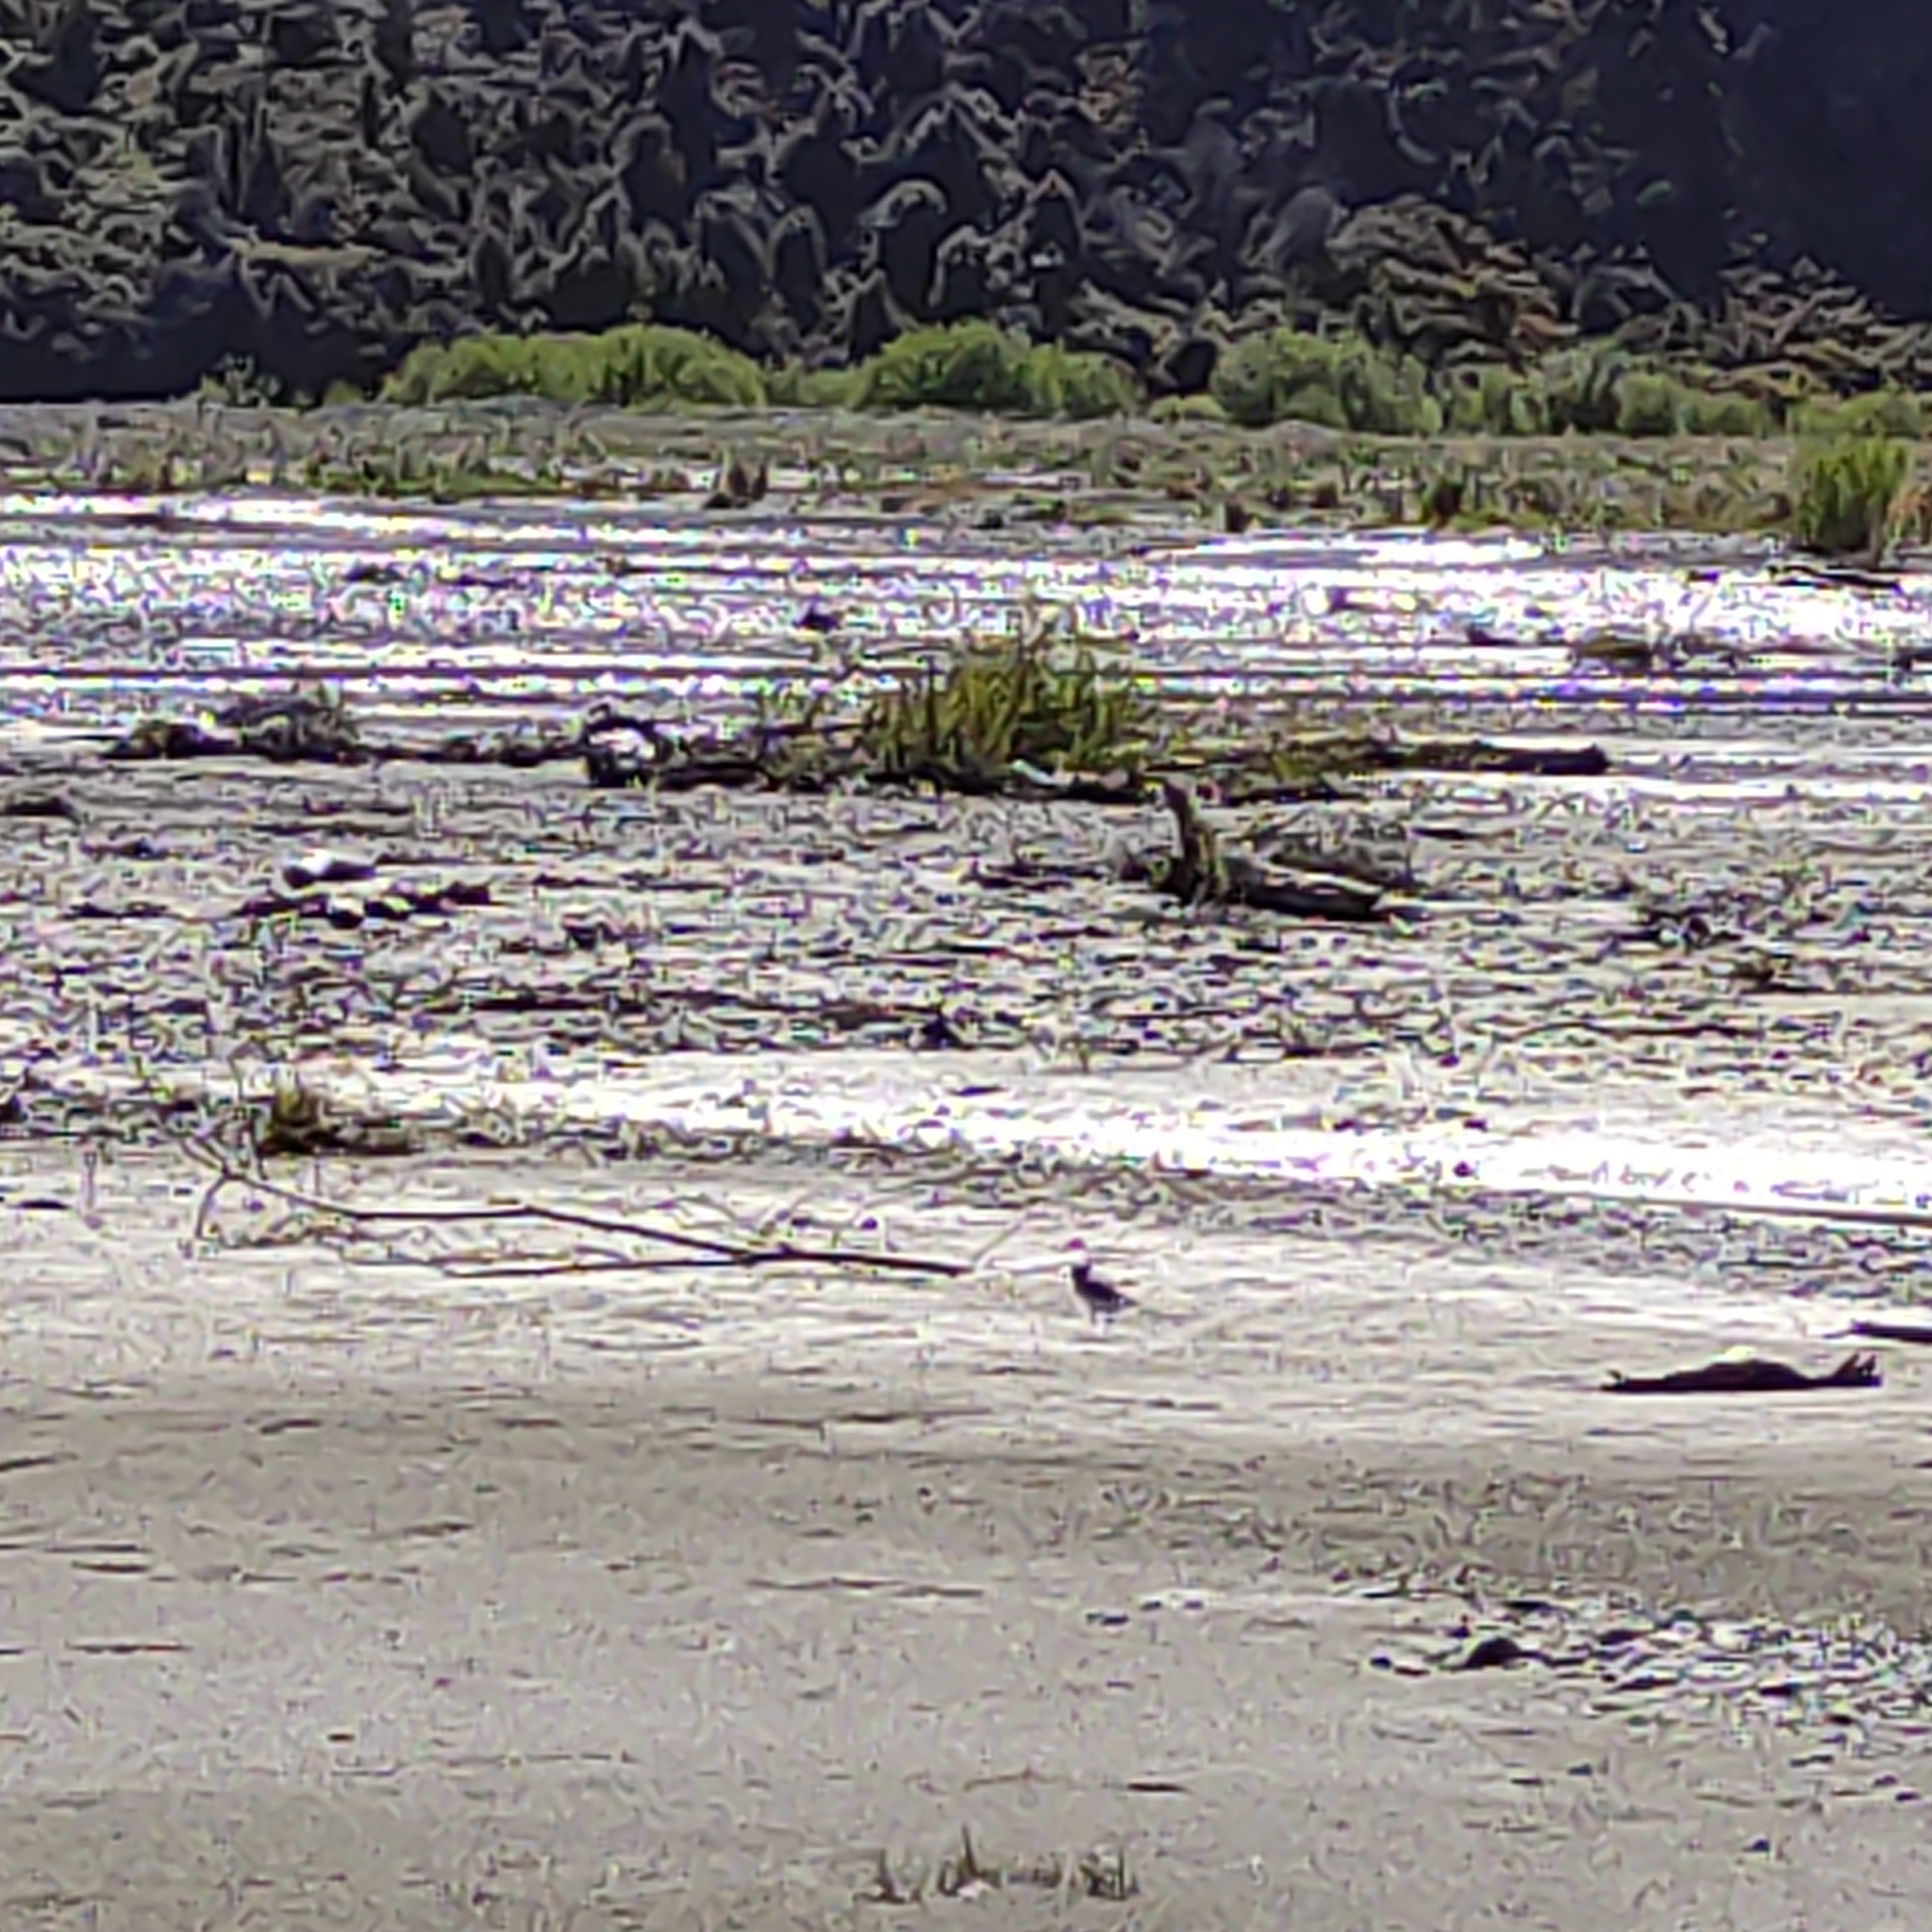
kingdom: Animalia
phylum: Chordata
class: Aves
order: Charadriiformes
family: Charadriidae
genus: Anarhynchus
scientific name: Anarhynchus
